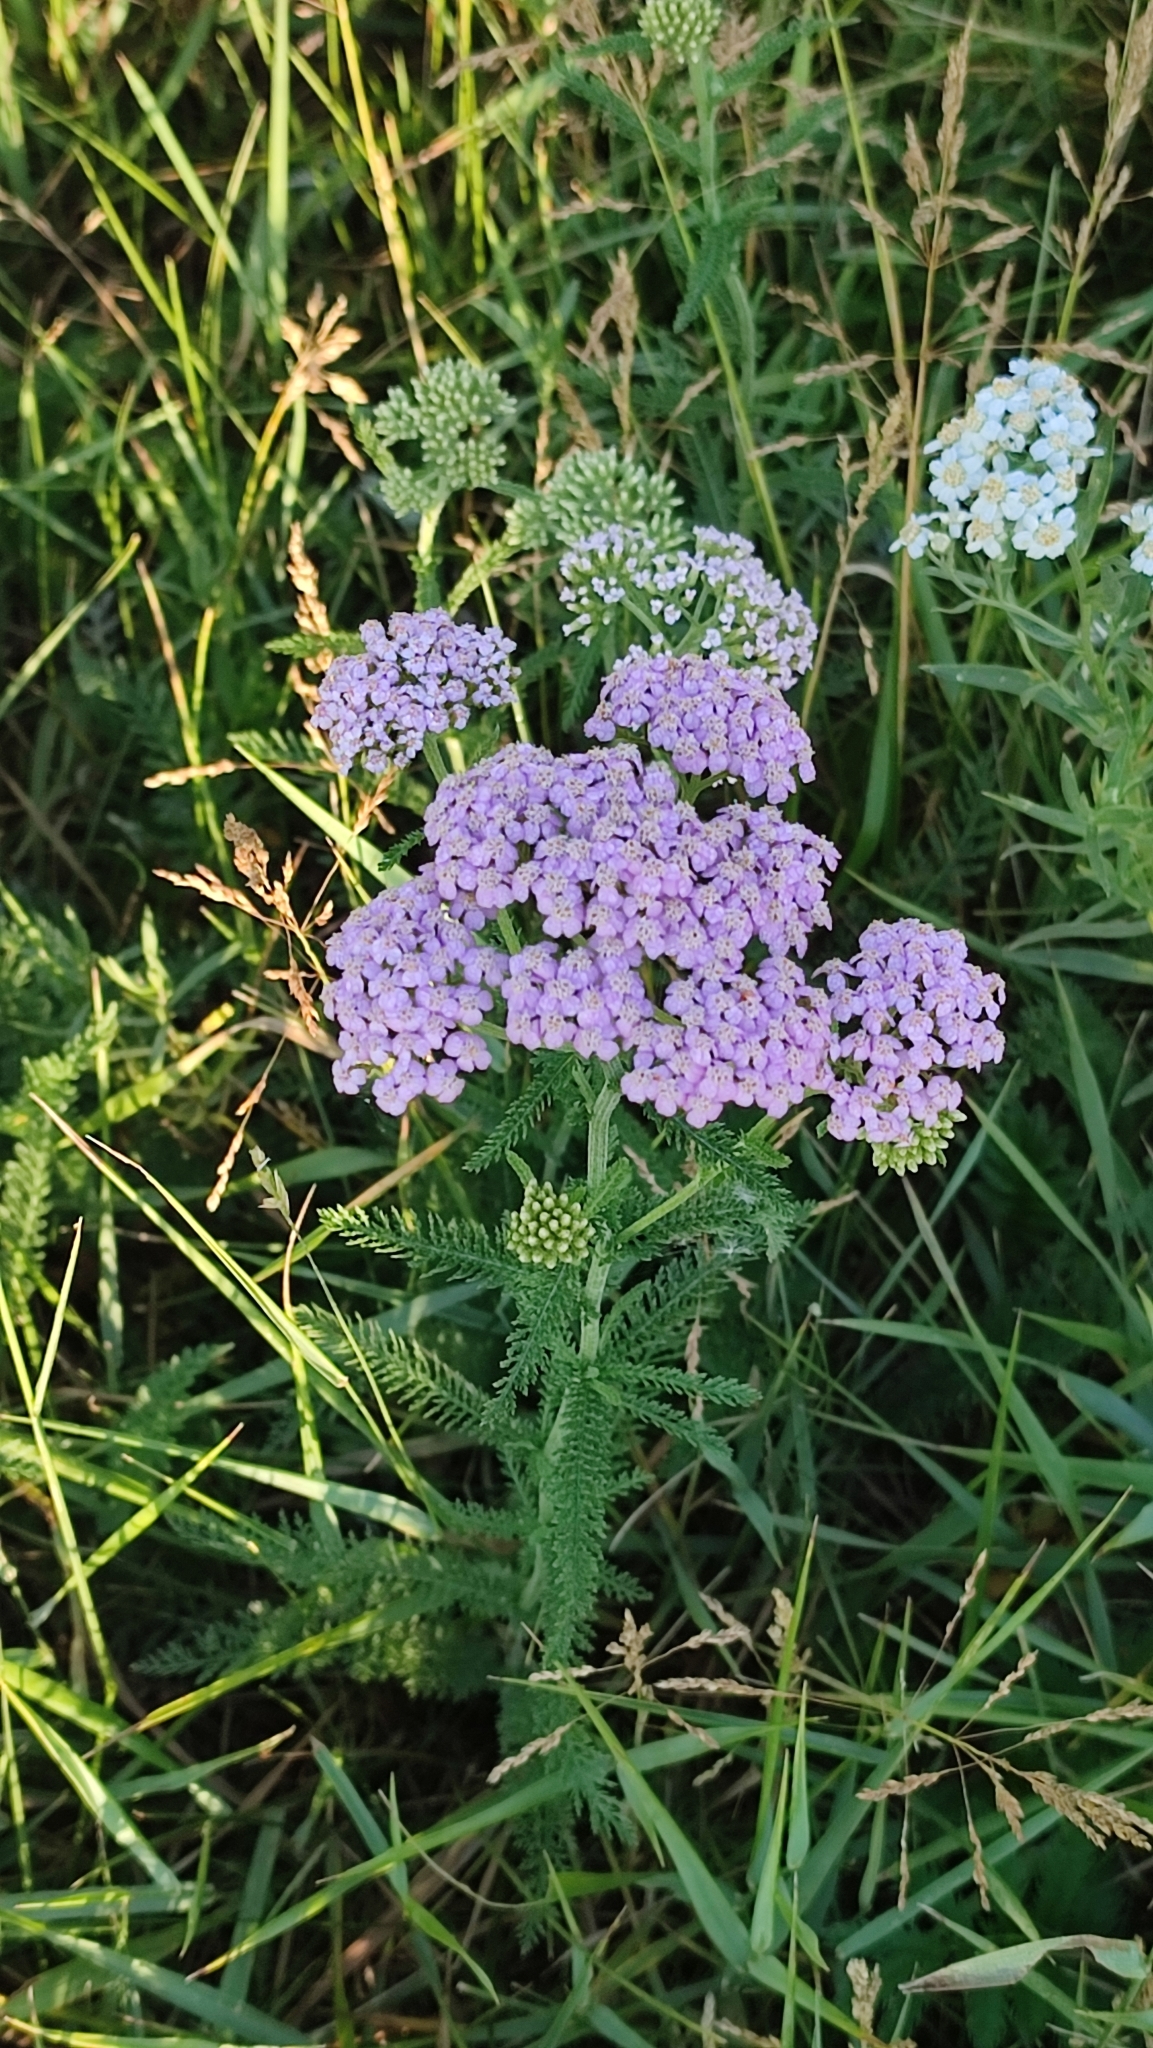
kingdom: Plantae
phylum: Tracheophyta
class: Magnoliopsida
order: Asterales
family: Asteraceae
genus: Achillea
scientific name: Achillea asiatica
